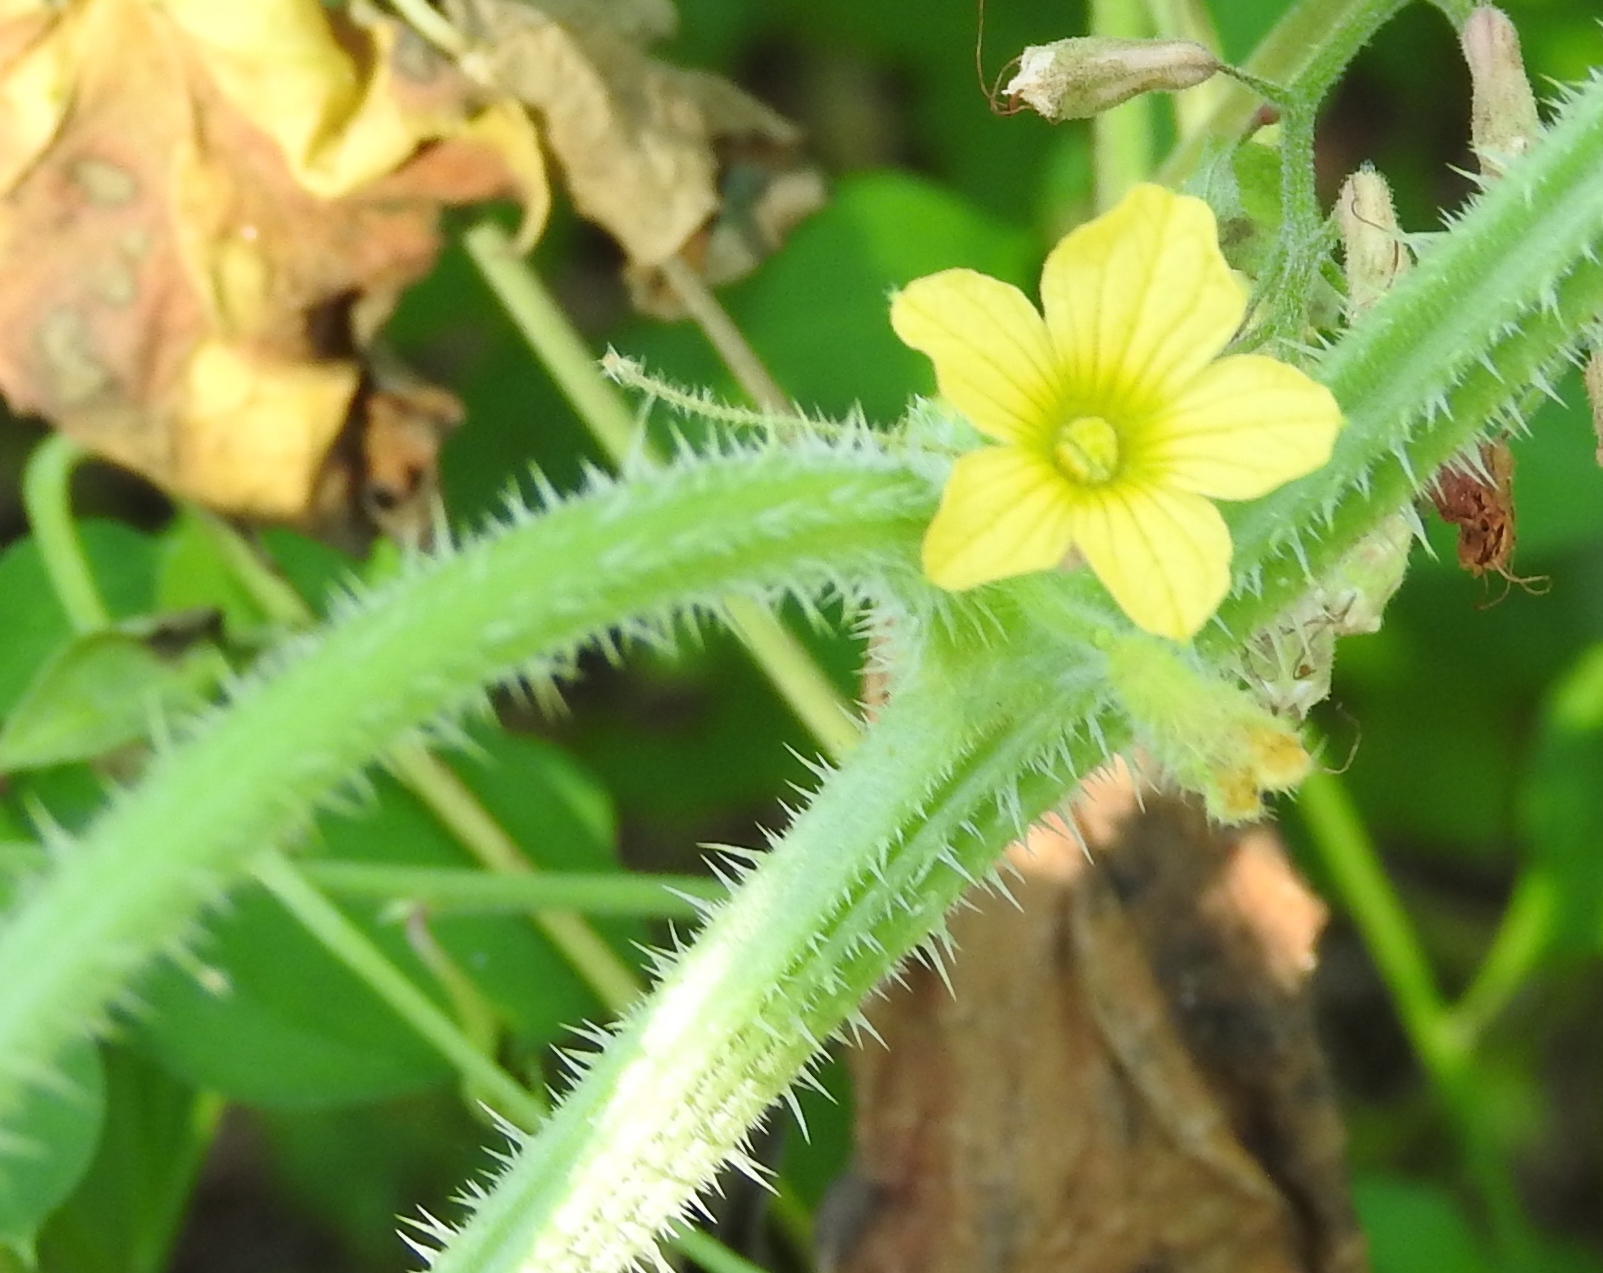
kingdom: Plantae
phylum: Tracheophyta
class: Magnoliopsida
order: Cucurbitales
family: Cucurbitaceae
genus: Cucumis
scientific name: Cucumis dipsaceus
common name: Hedgehog gourd
